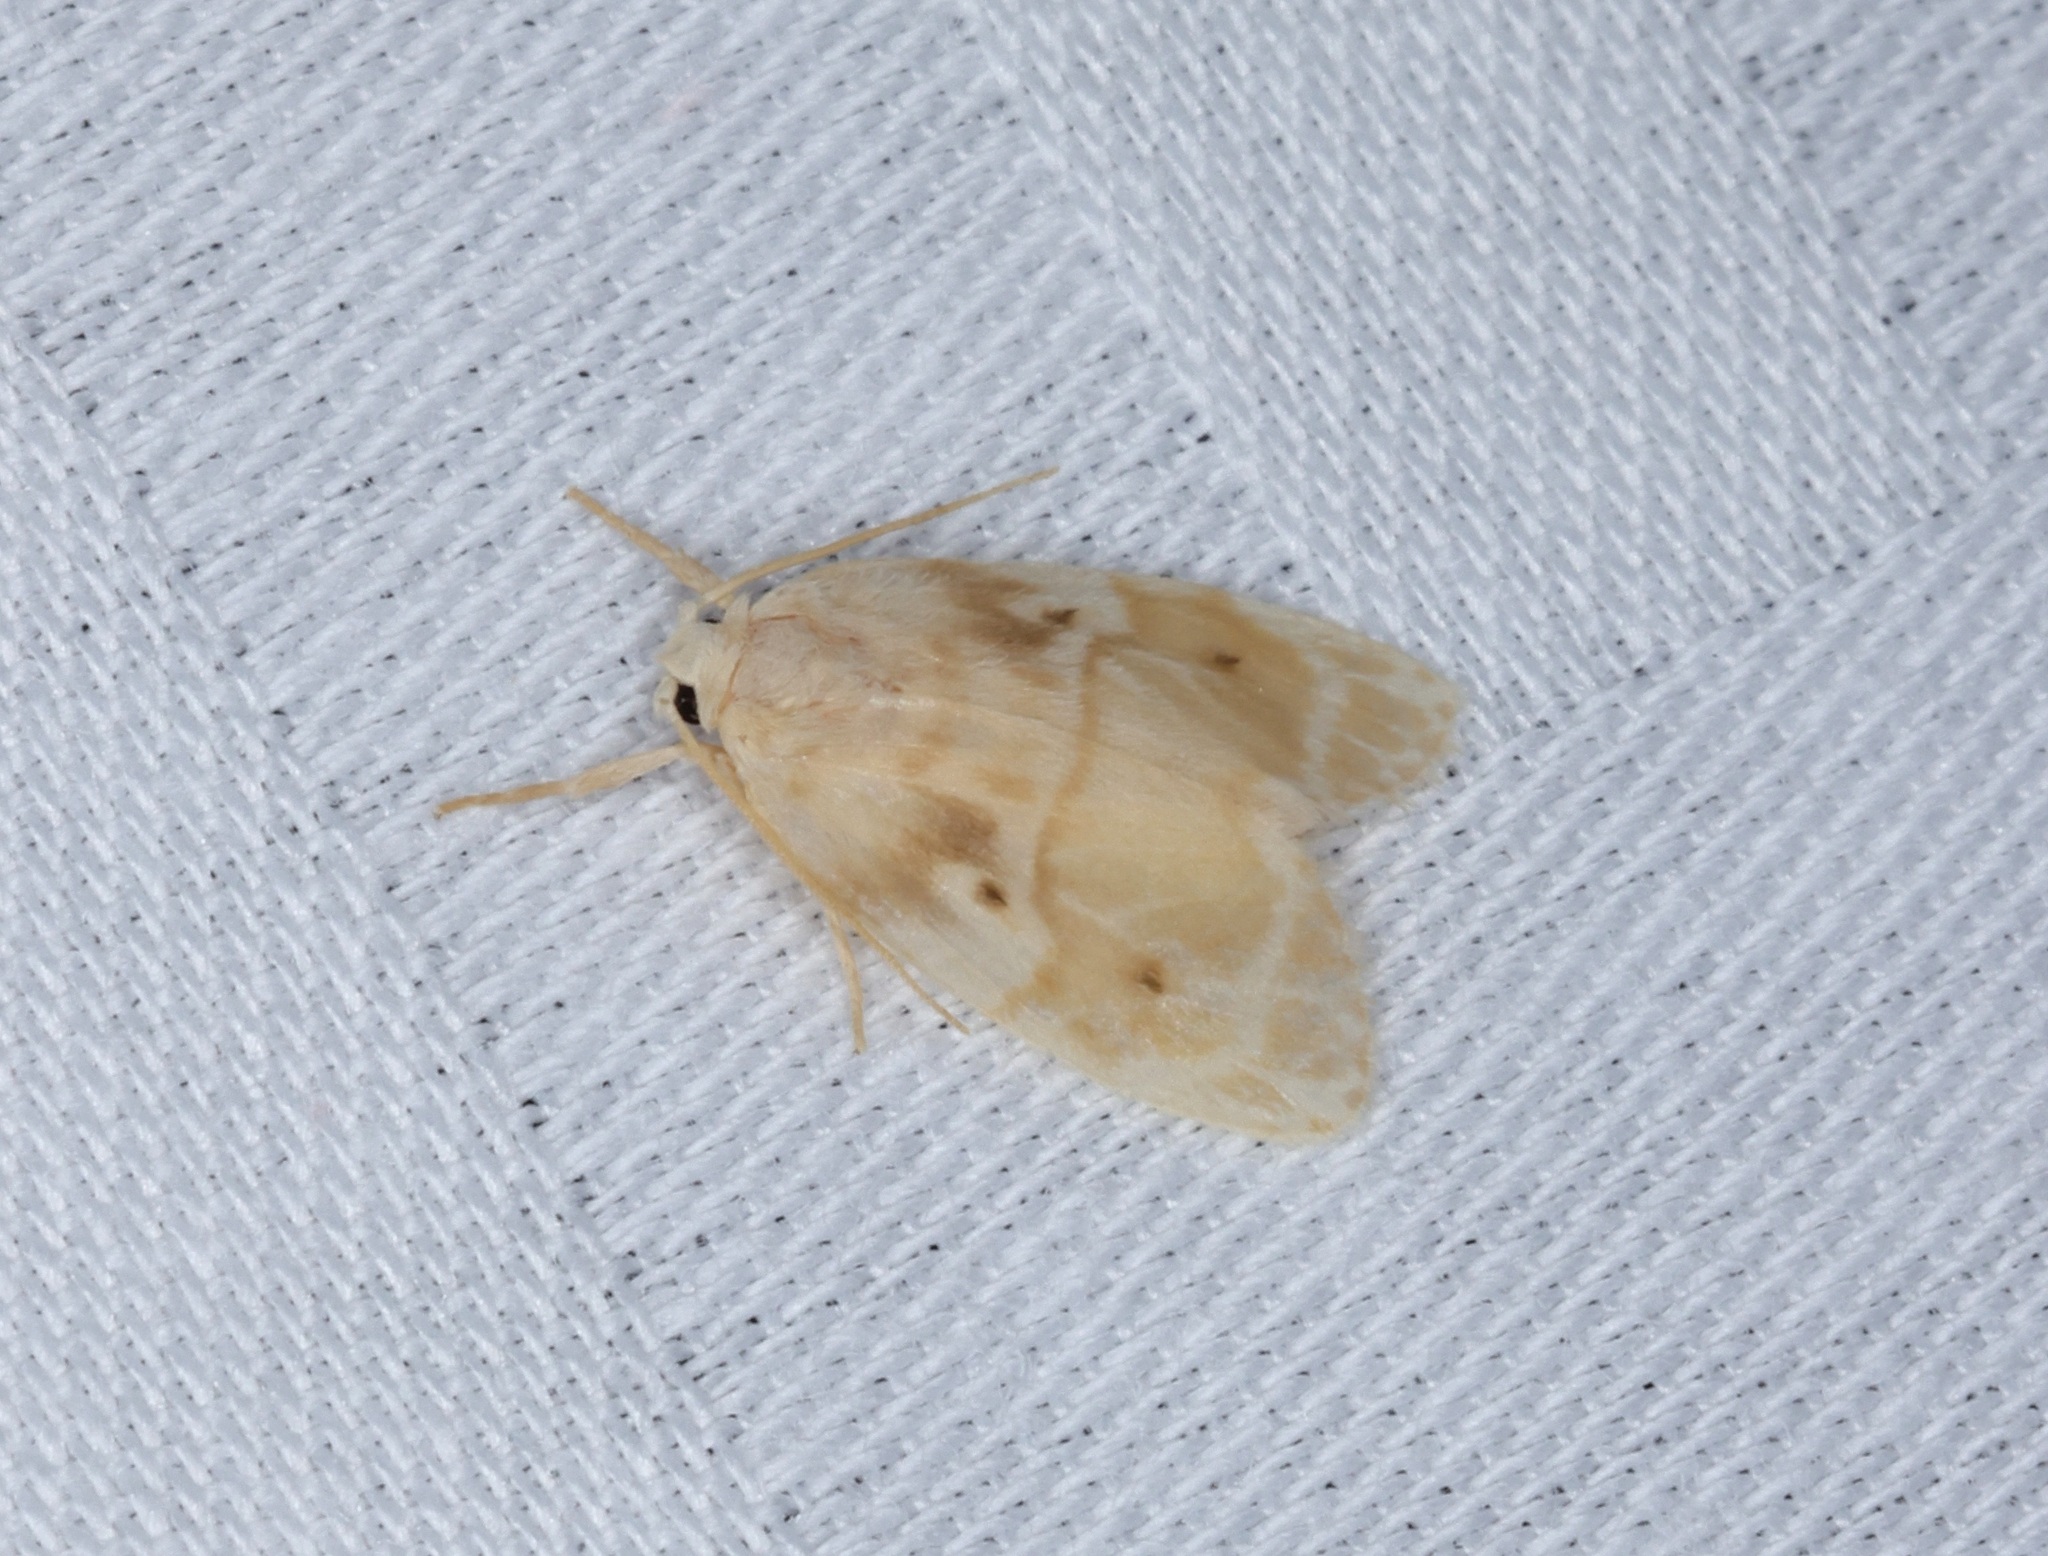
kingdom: Animalia
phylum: Arthropoda
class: Insecta
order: Lepidoptera
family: Erebidae
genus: Schistophleps
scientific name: Schistophleps bipuncta
